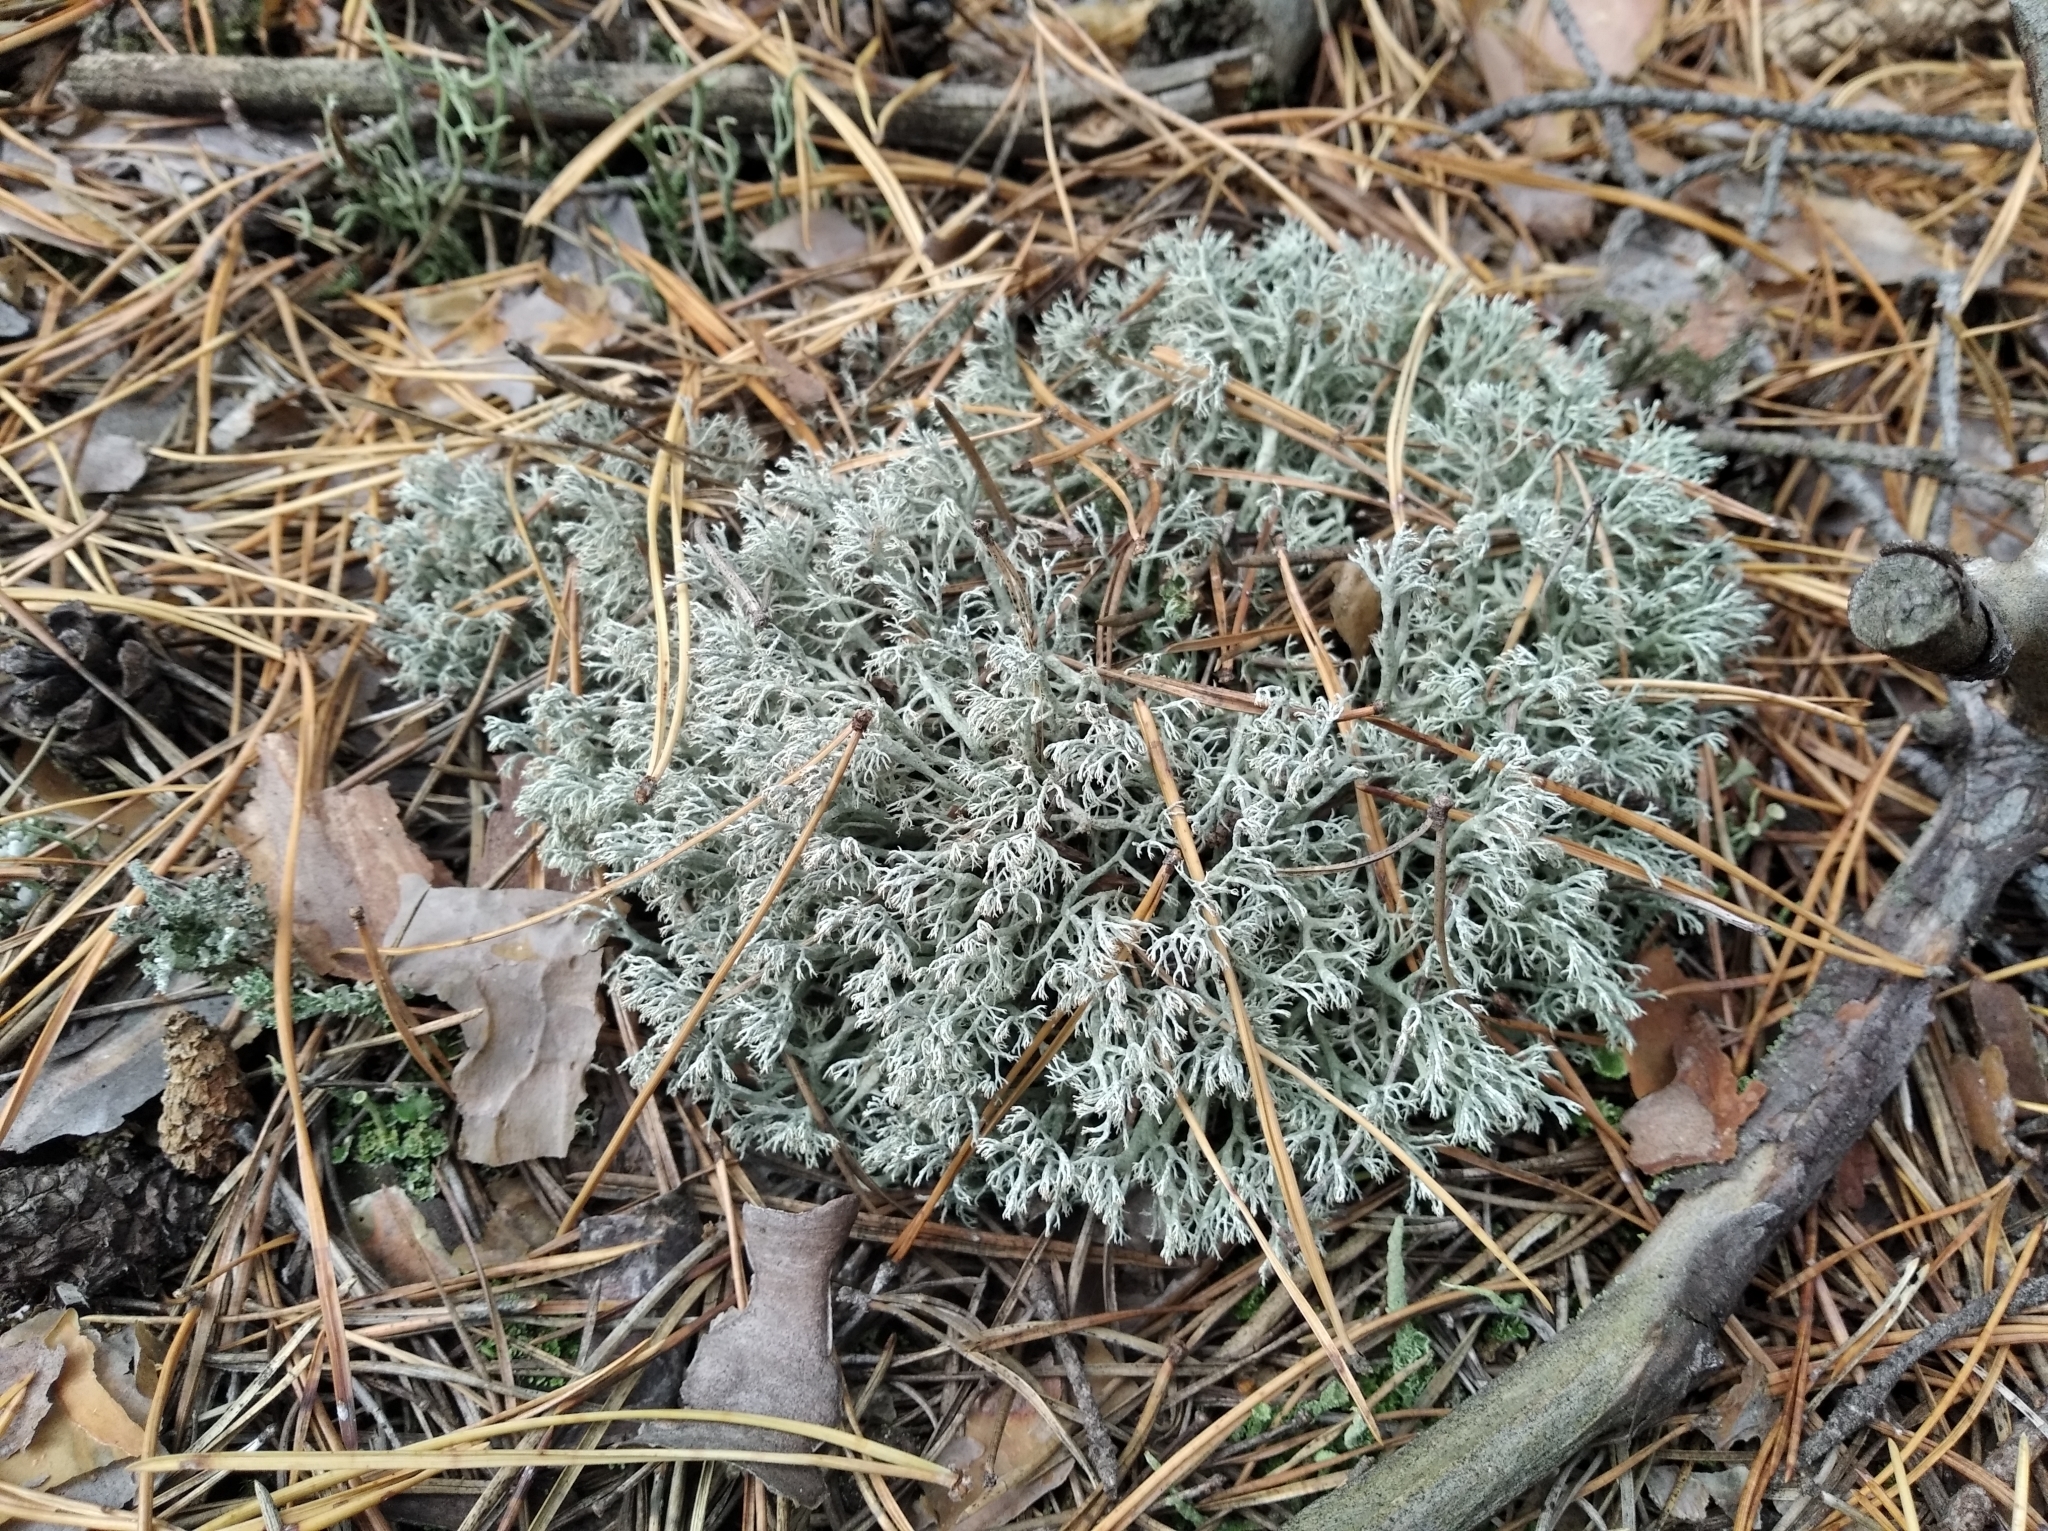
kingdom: Fungi
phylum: Ascomycota
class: Lecanoromycetes
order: Lecanorales
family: Cladoniaceae
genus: Cladonia
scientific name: Cladonia rangiferina
